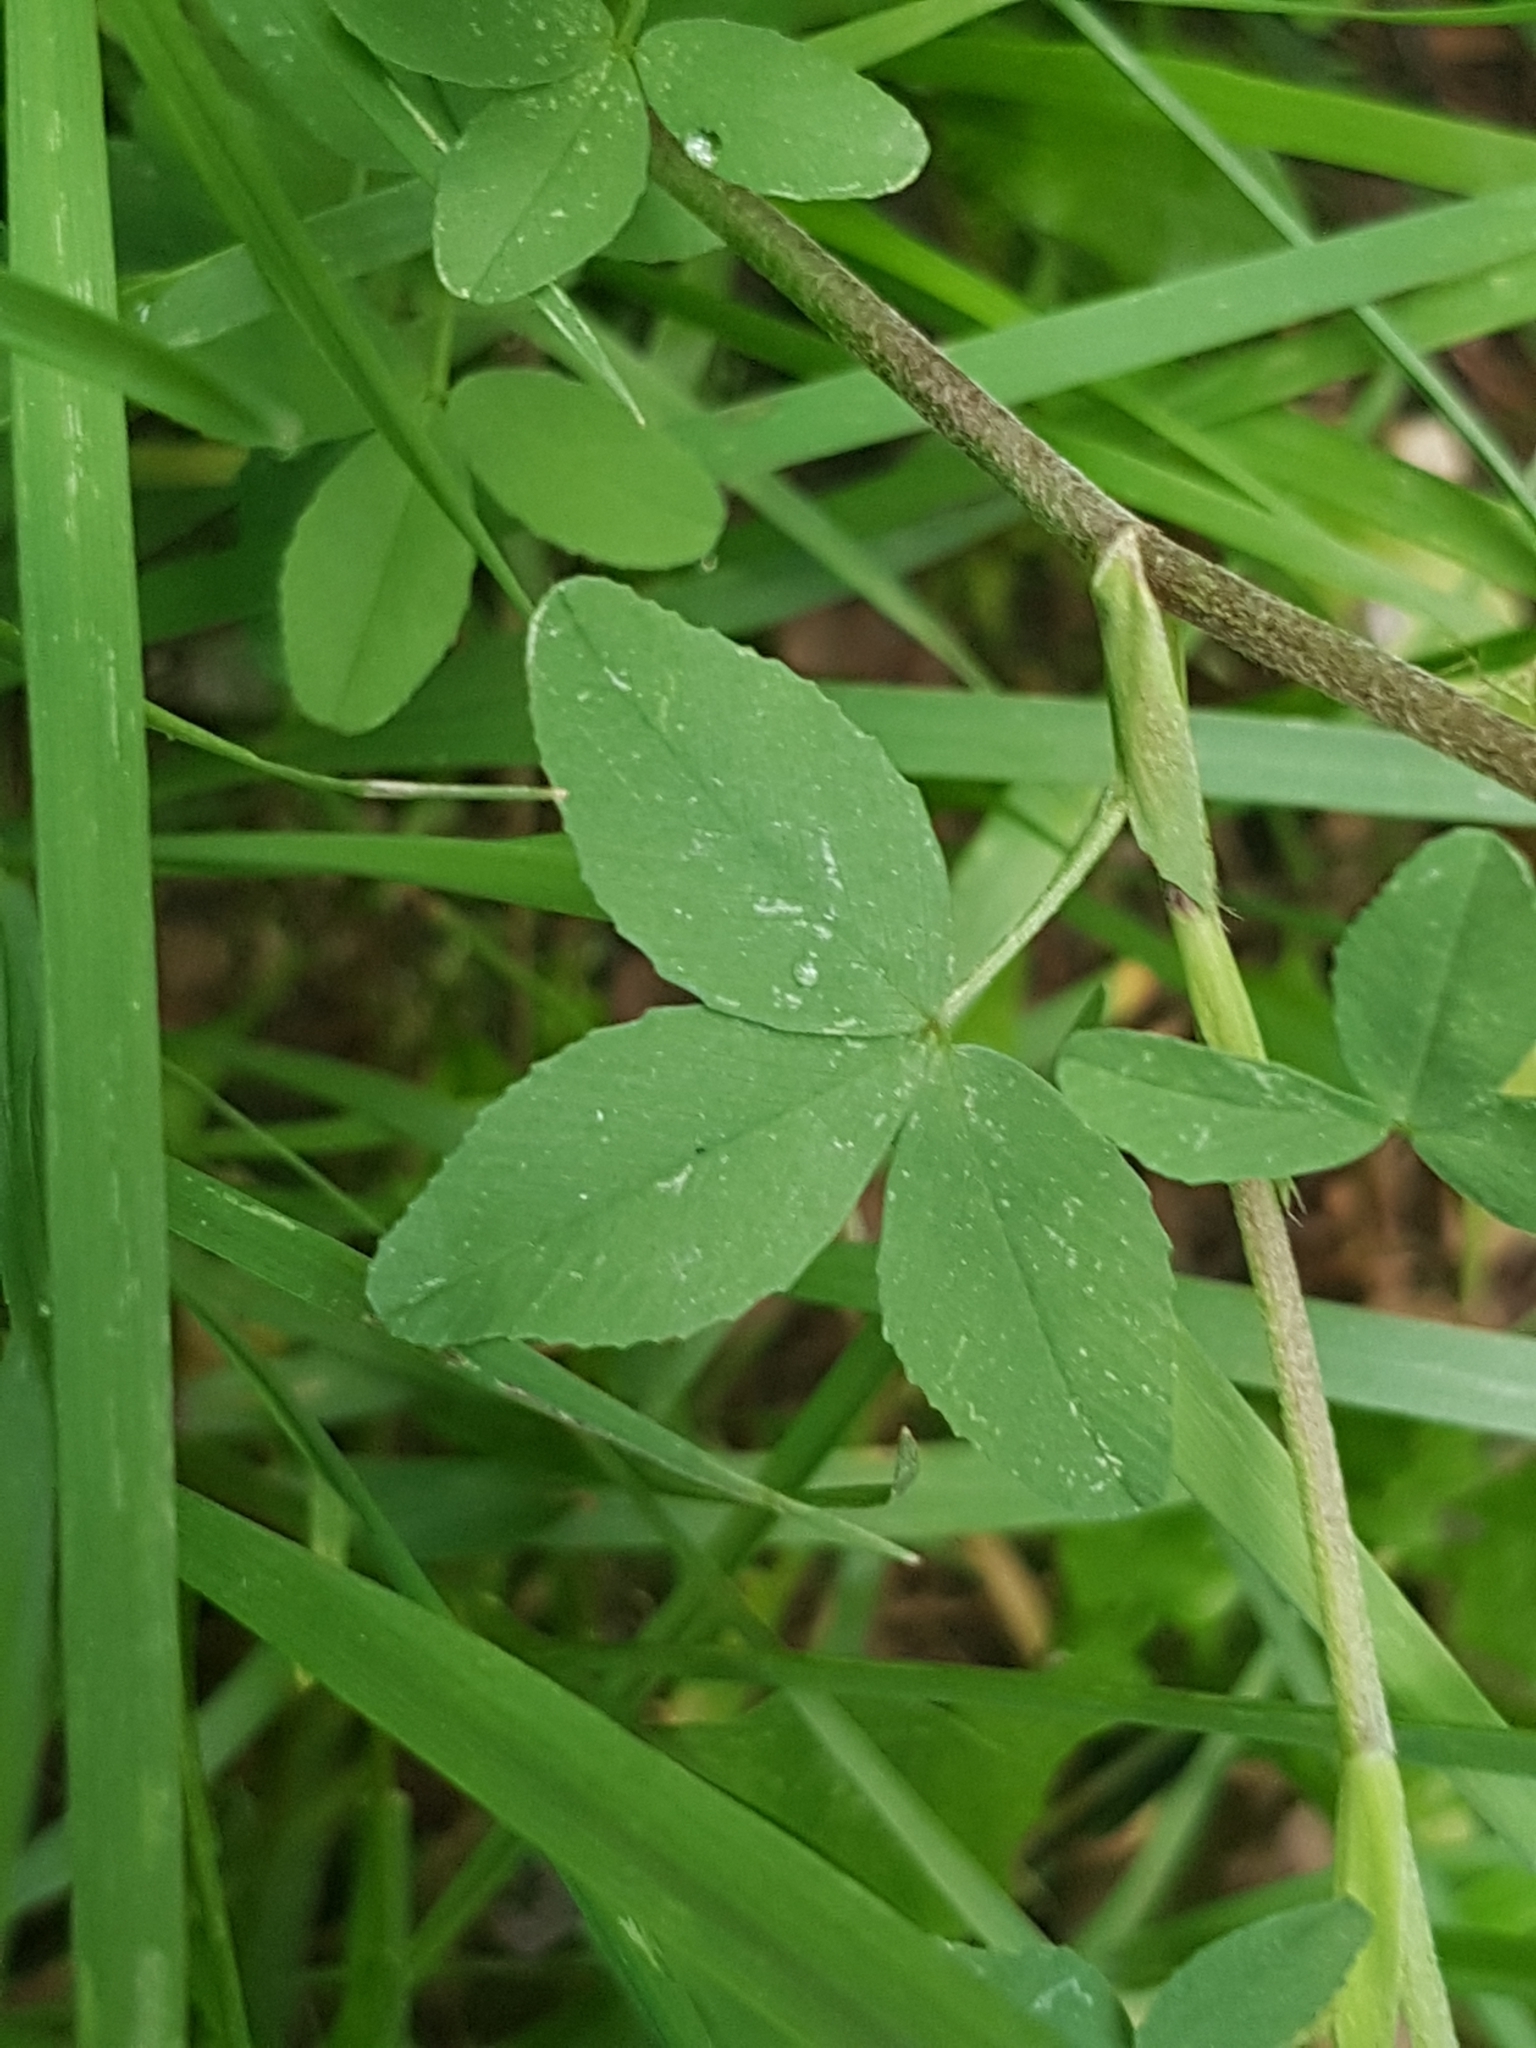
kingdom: Plantae
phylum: Tracheophyta
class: Magnoliopsida
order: Fabales
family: Fabaceae
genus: Trifolium
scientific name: Trifolium aureum
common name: Golden clover
